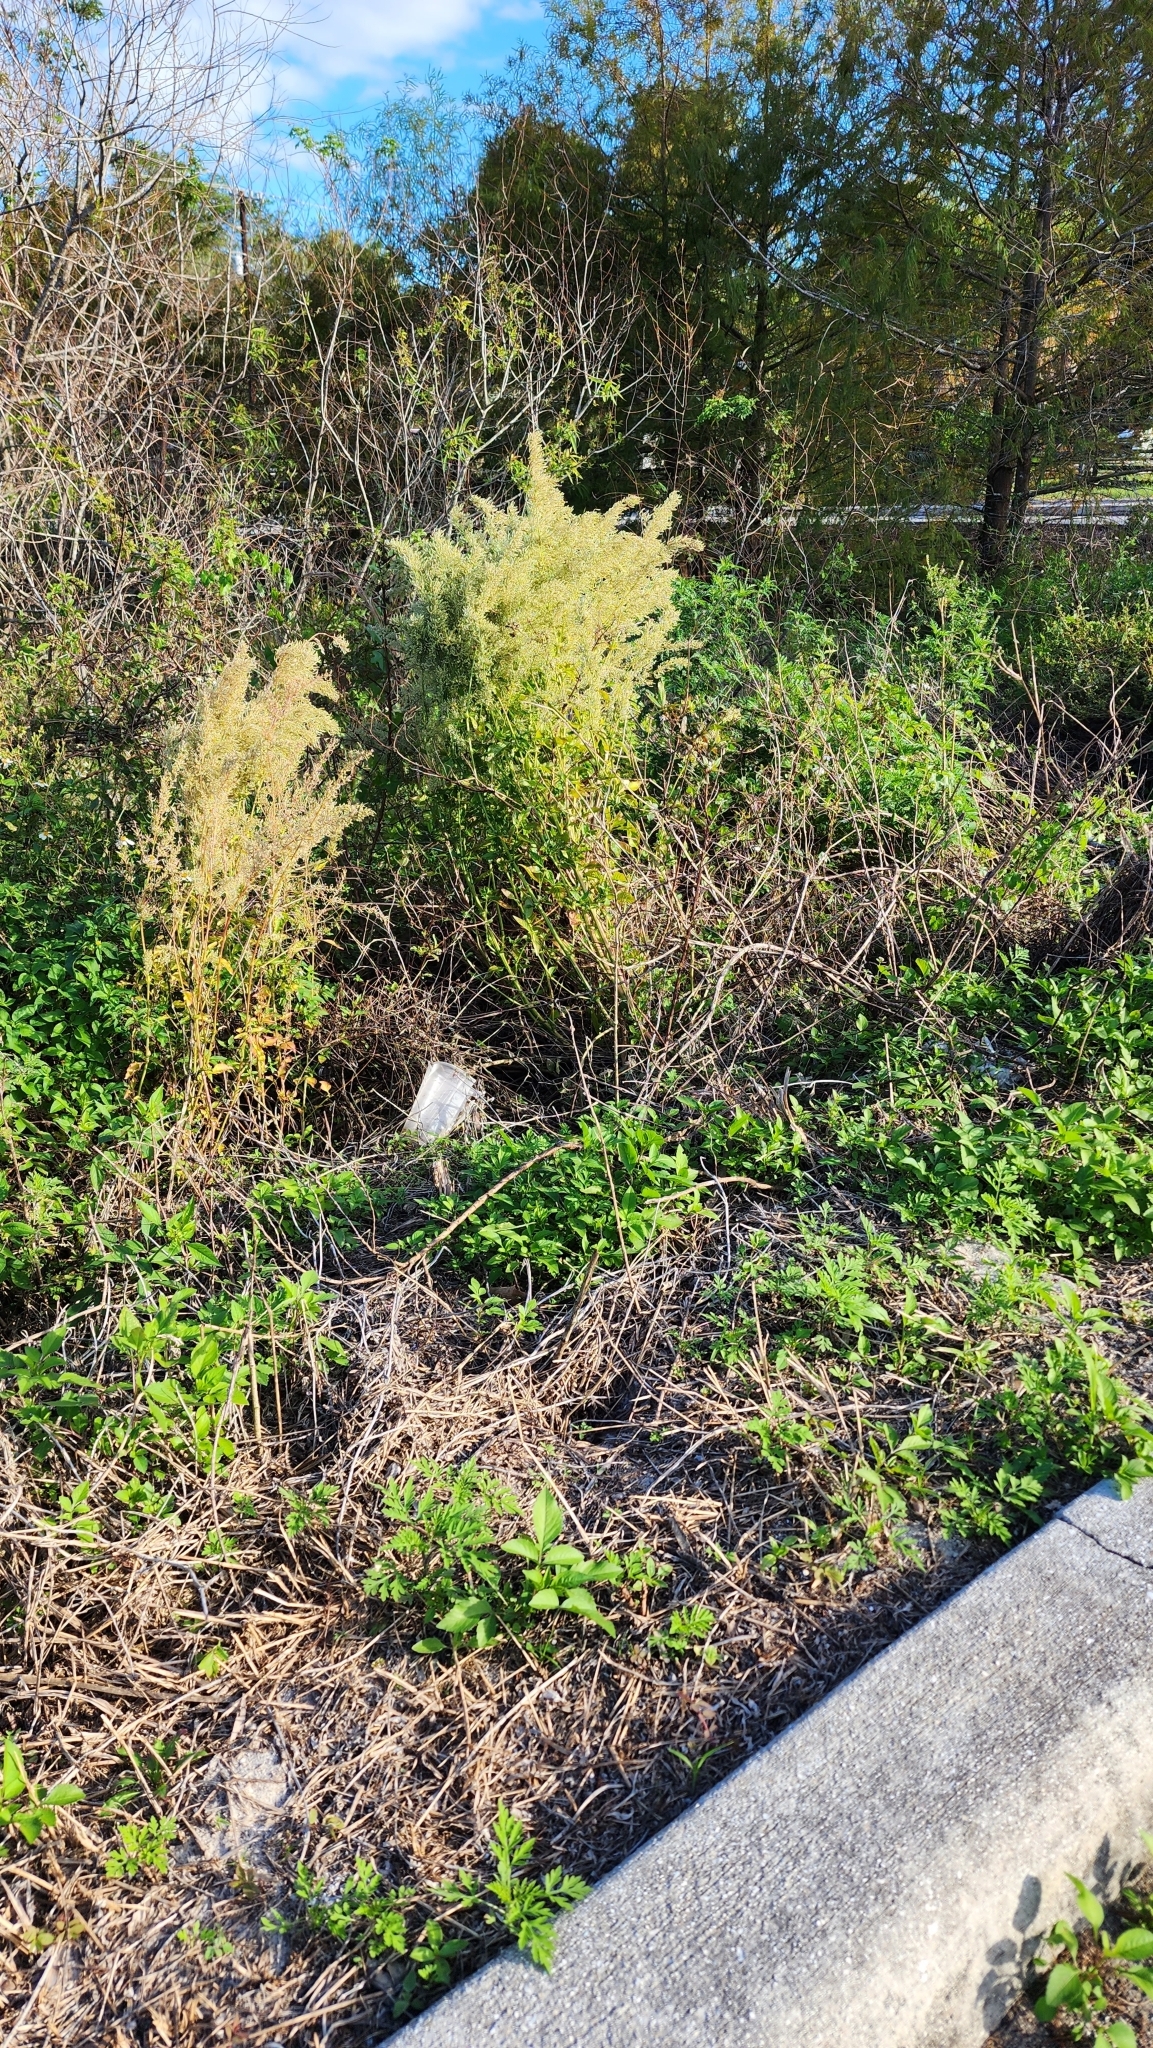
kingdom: Plantae
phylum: Tracheophyta
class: Magnoliopsida
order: Caryophyllales
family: Amaranthaceae
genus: Iresine
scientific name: Iresine diffusa
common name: Juba's-bush
